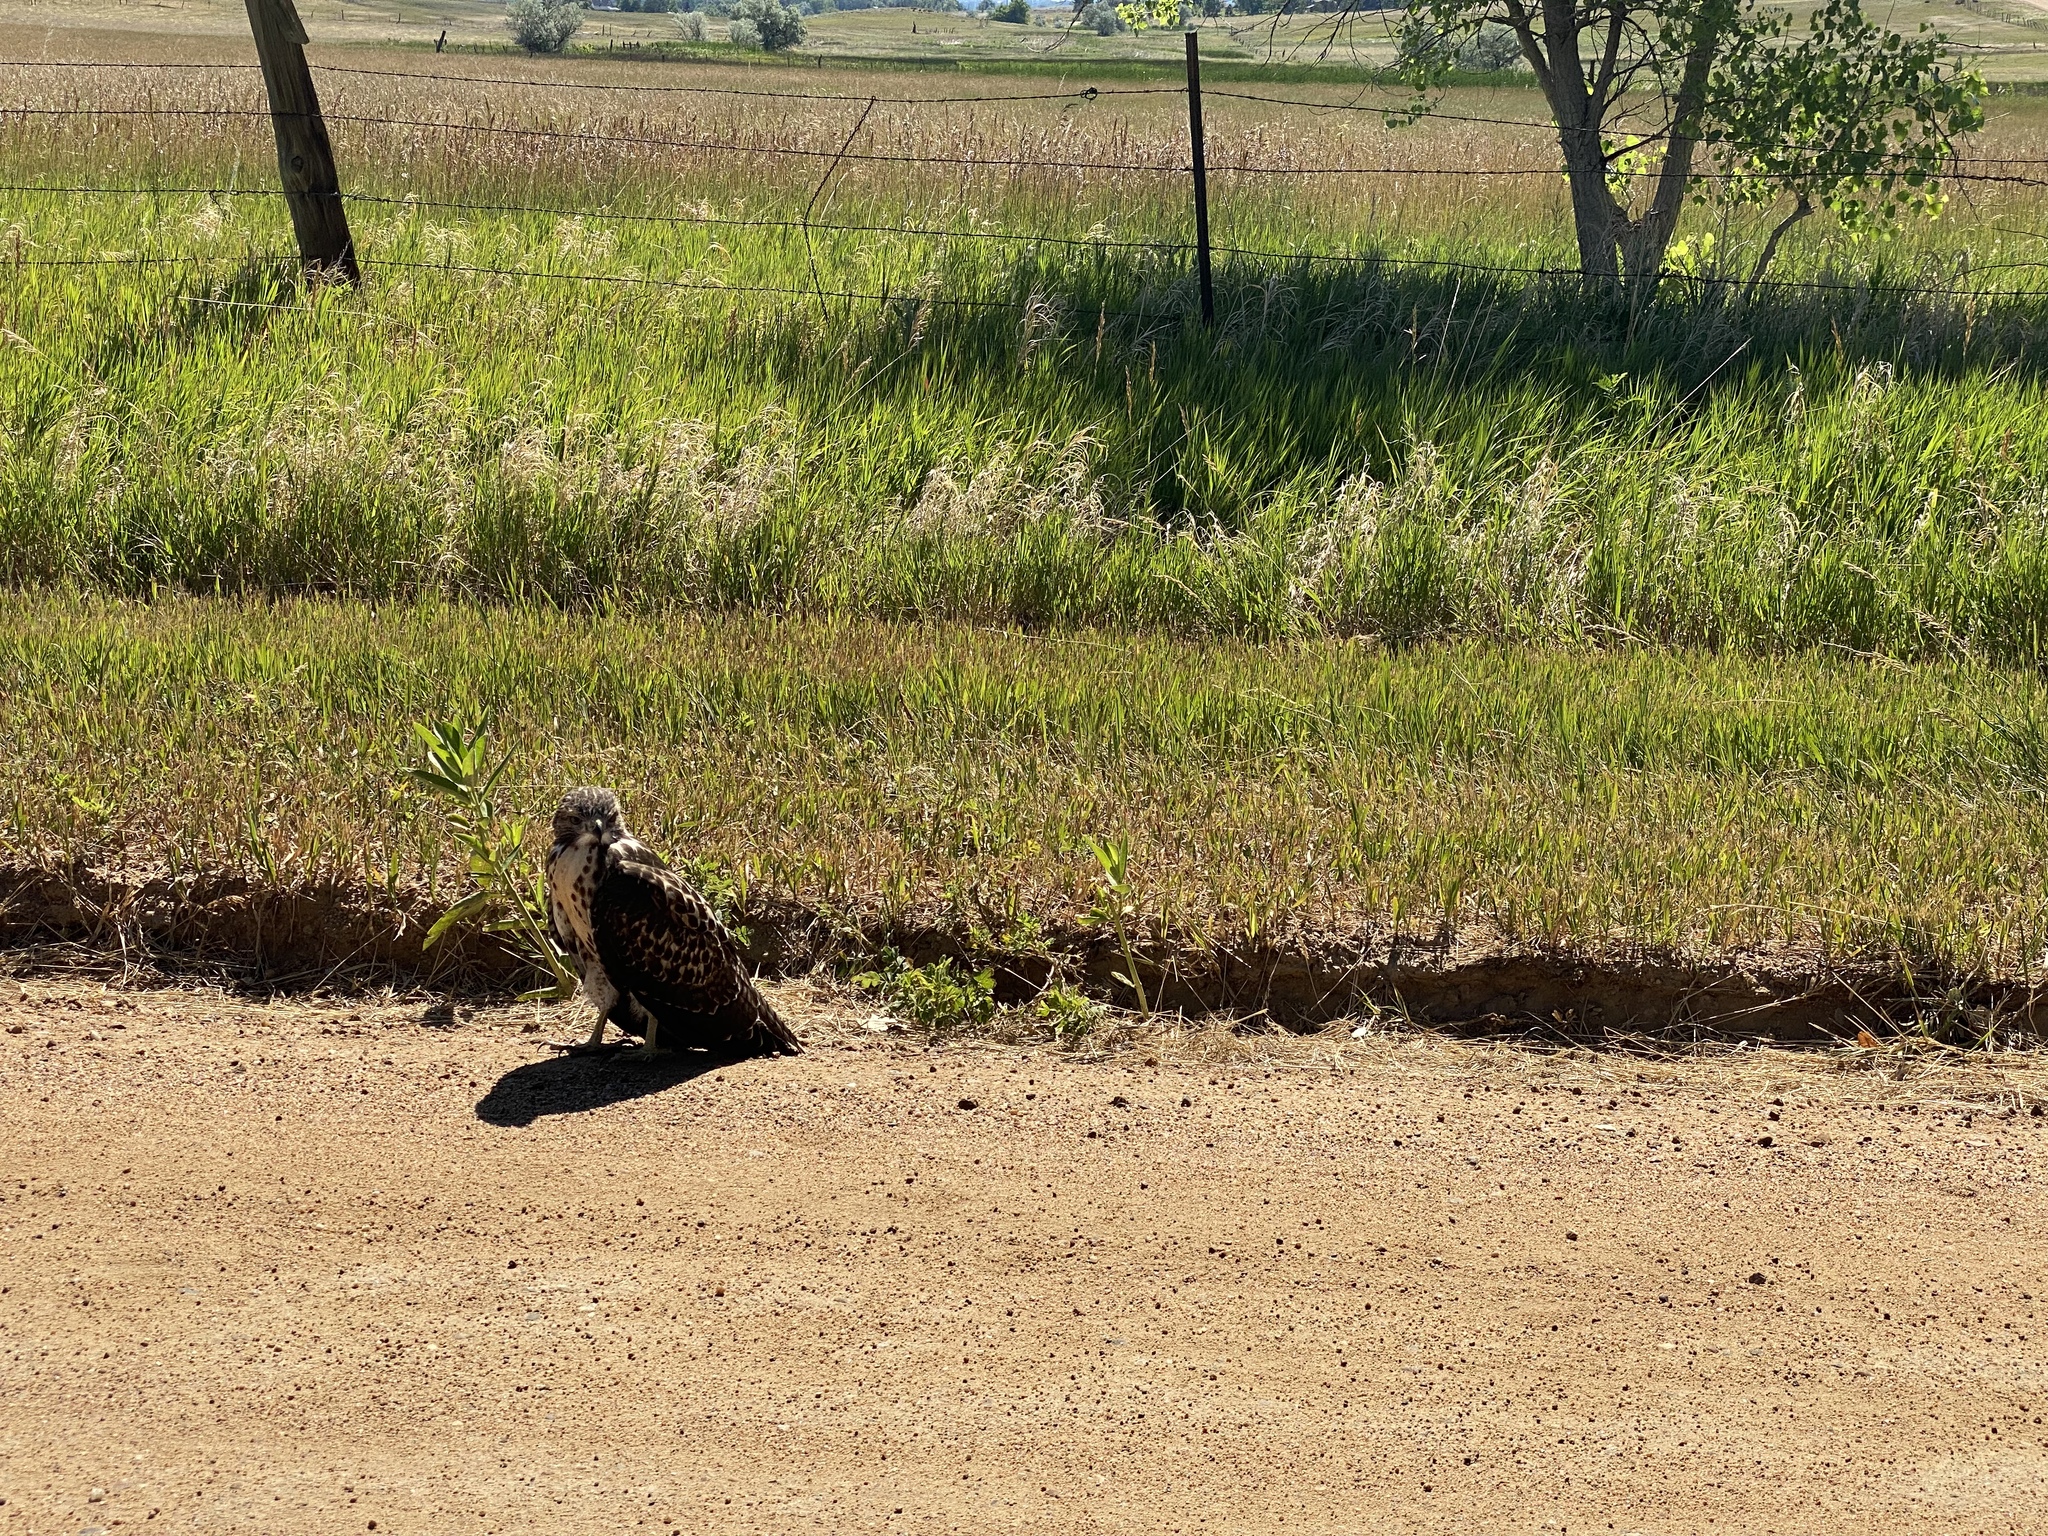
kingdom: Animalia
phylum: Chordata
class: Aves
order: Accipitriformes
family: Accipitridae
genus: Buteo
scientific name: Buteo jamaicensis
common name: Red-tailed hawk
